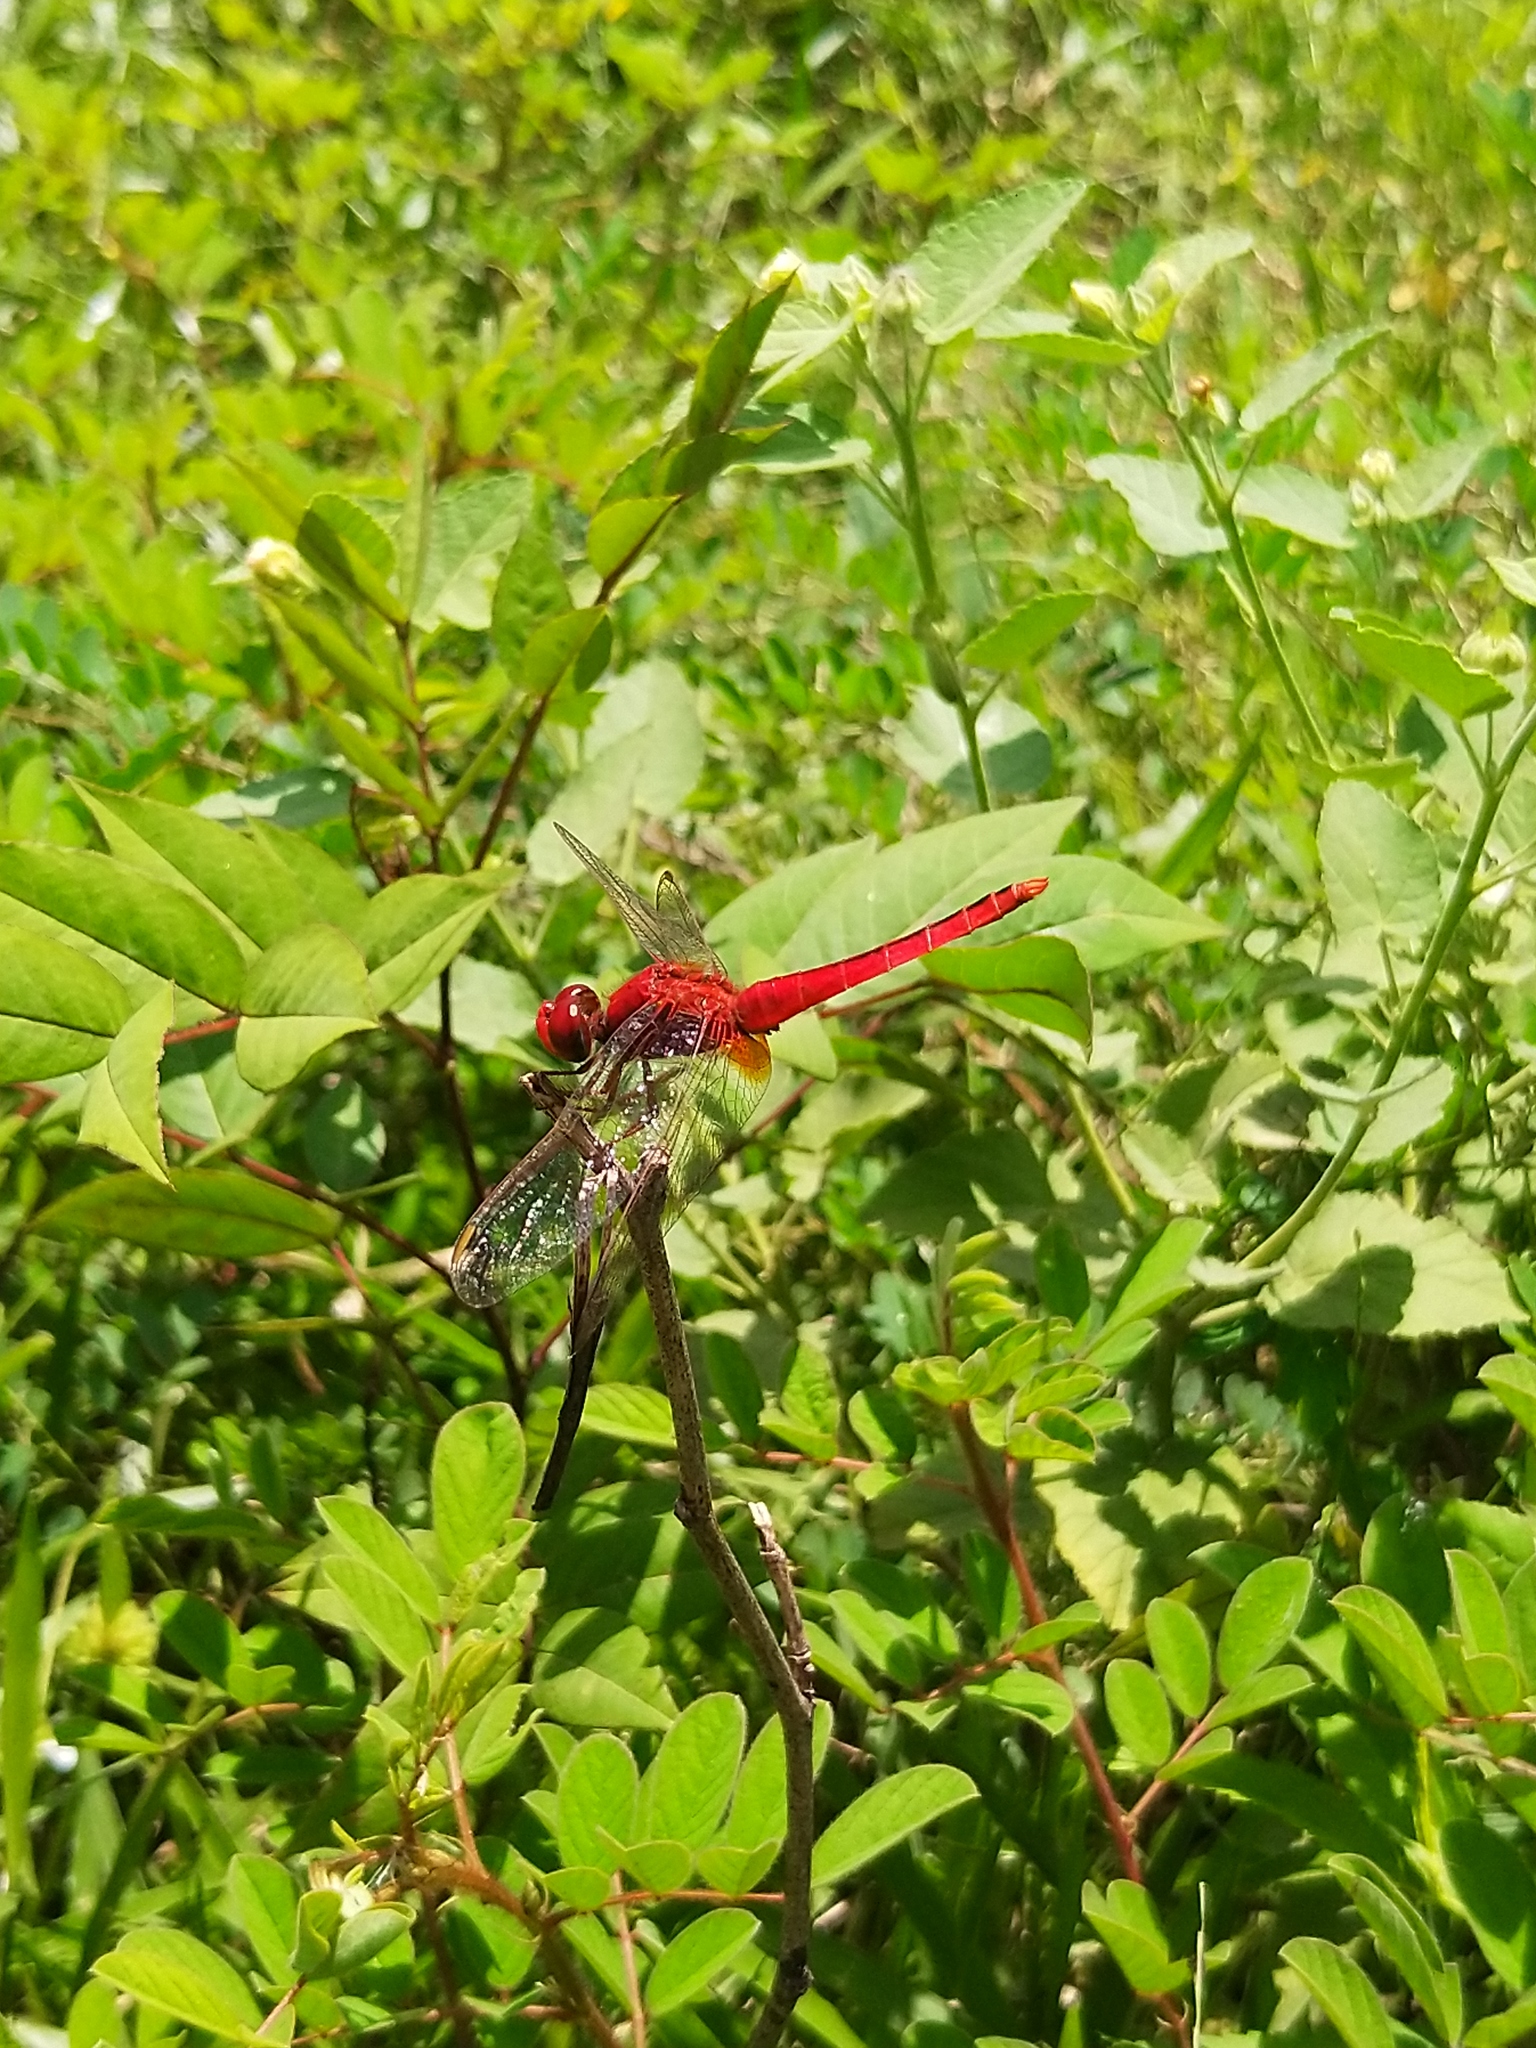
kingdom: Animalia
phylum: Arthropoda
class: Insecta
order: Odonata
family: Libellulidae
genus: Crocothemis
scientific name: Crocothemis servilia
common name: Scarlet skimmer
